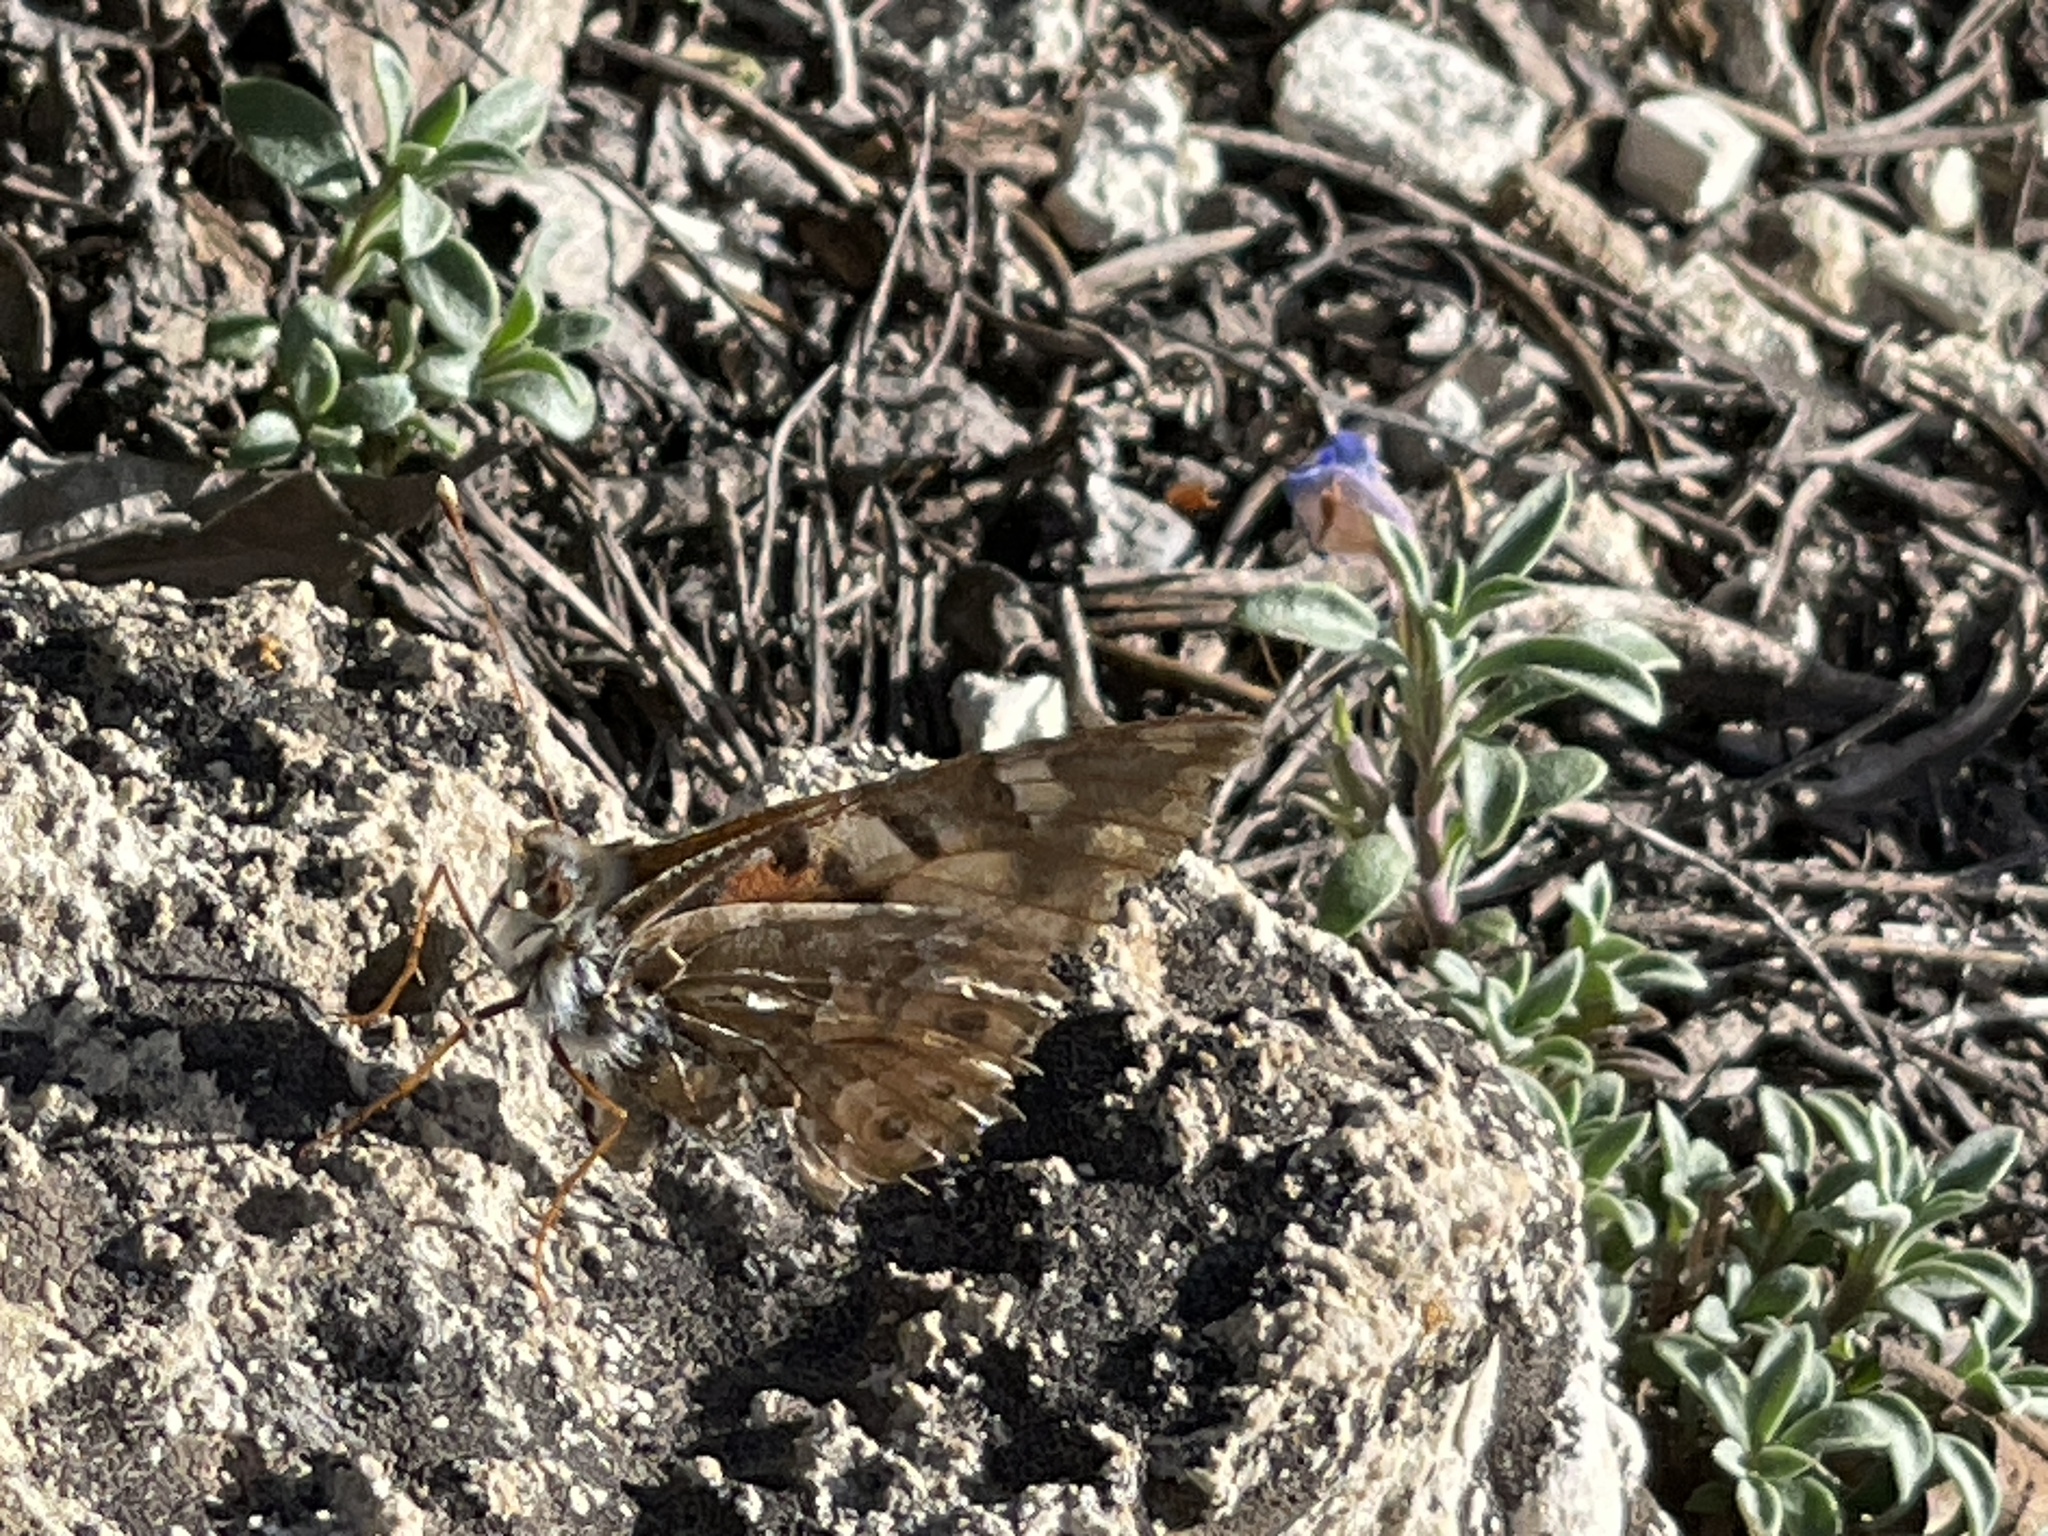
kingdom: Animalia
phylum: Arthropoda
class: Insecta
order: Lepidoptera
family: Nymphalidae
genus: Vanessa
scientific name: Vanessa cardui
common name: Painted lady
